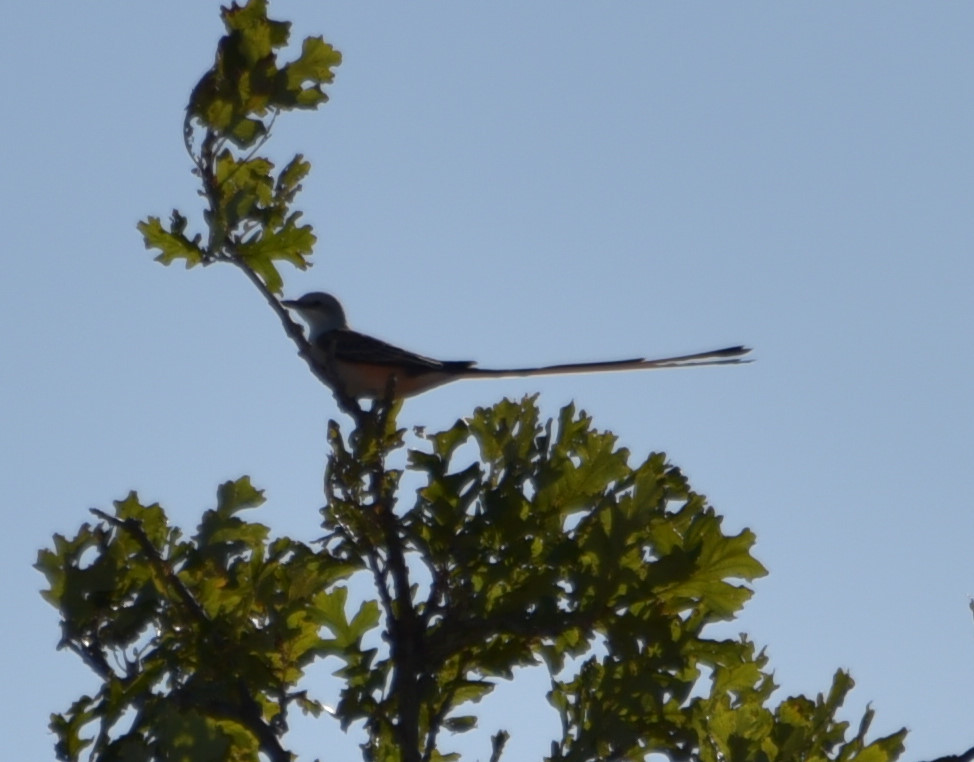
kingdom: Animalia
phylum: Chordata
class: Aves
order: Passeriformes
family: Tyrannidae
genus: Tyrannus
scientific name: Tyrannus forficatus
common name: Scissor-tailed flycatcher
